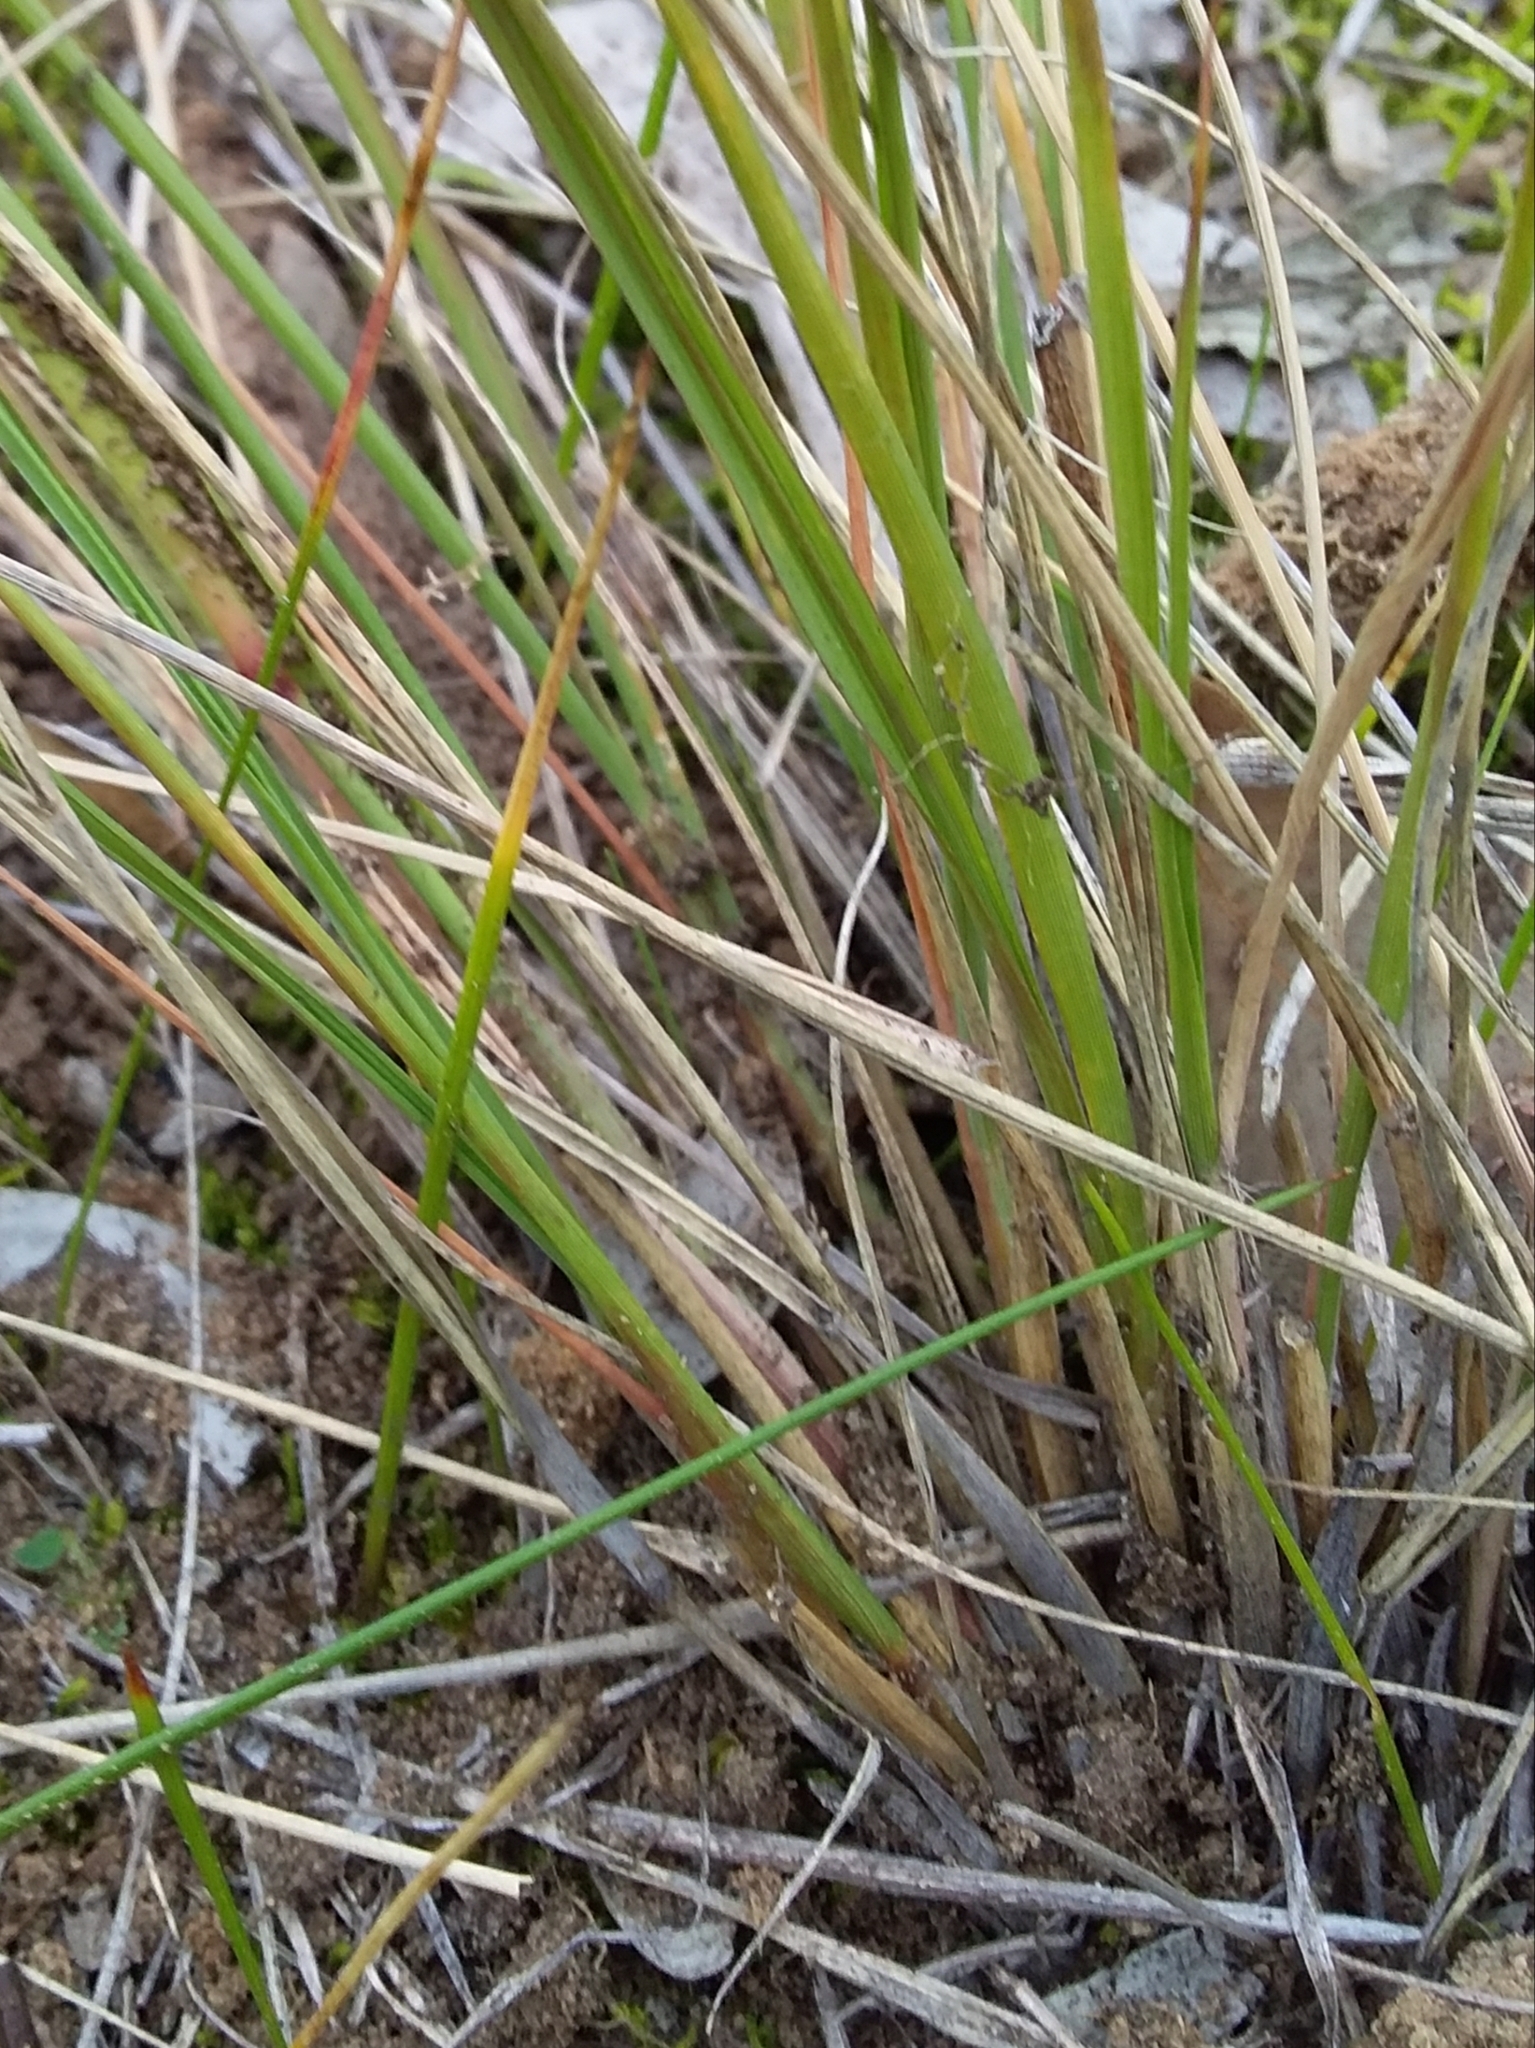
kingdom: Plantae
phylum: Tracheophyta
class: Liliopsida
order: Poales
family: Poaceae
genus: Eragrostis
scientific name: Eragrostis curvula
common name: African love-grass
